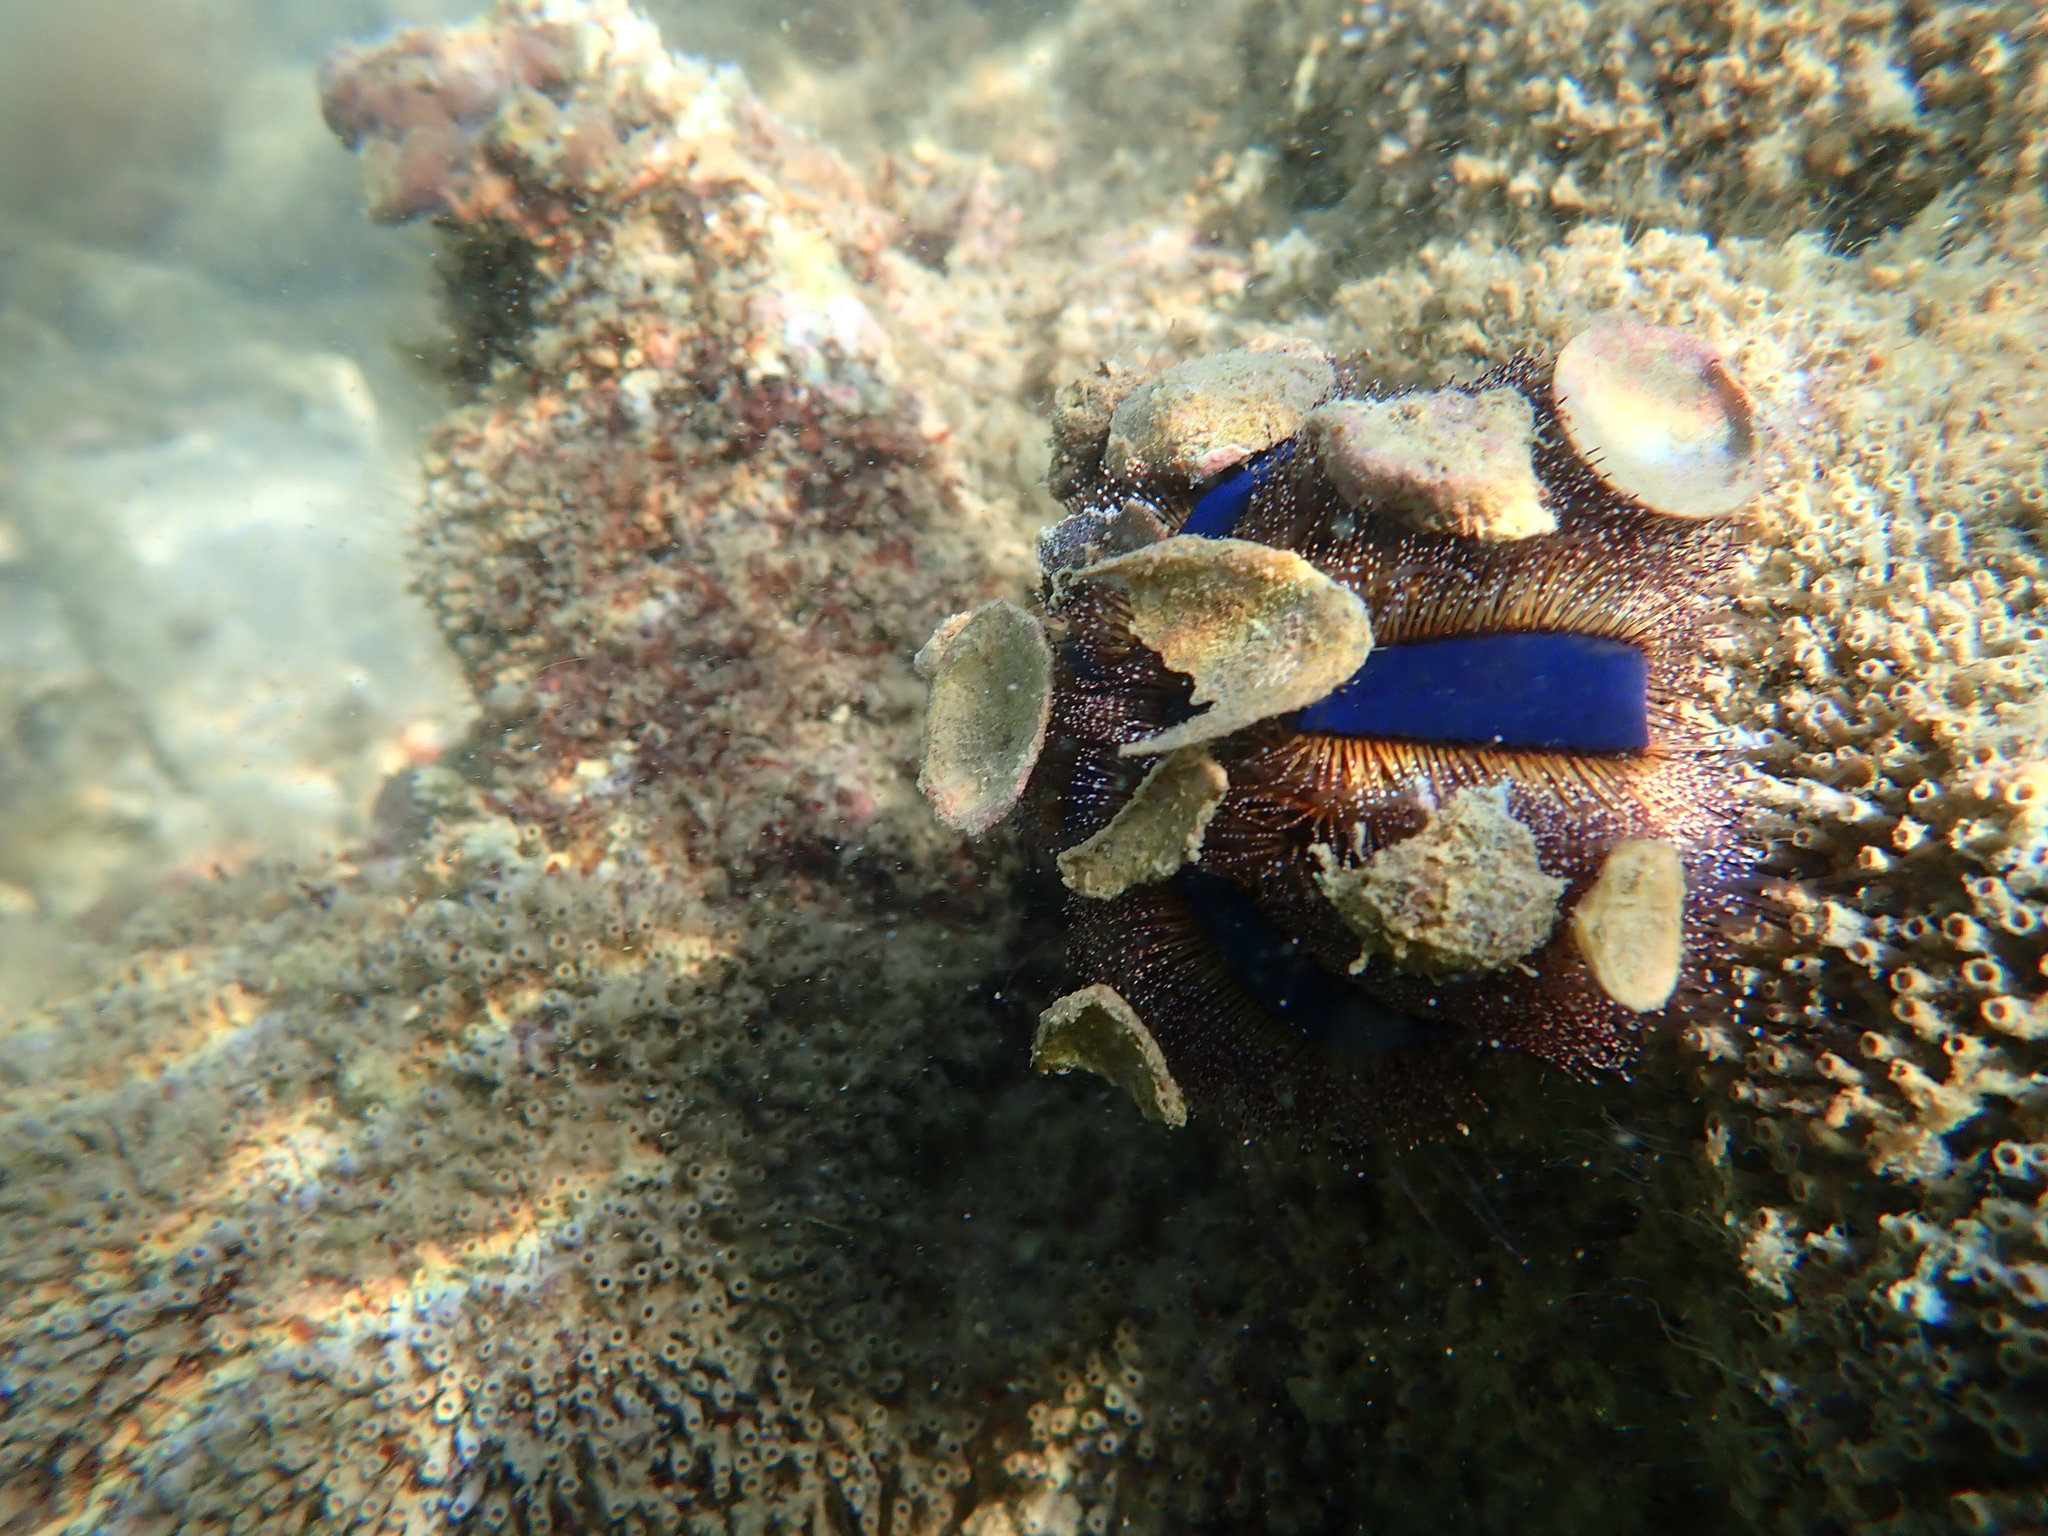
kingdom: Animalia
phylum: Echinodermata
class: Echinoidea
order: Camarodonta
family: Temnopleuridae
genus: Mespilia
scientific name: Mespilia globulus
